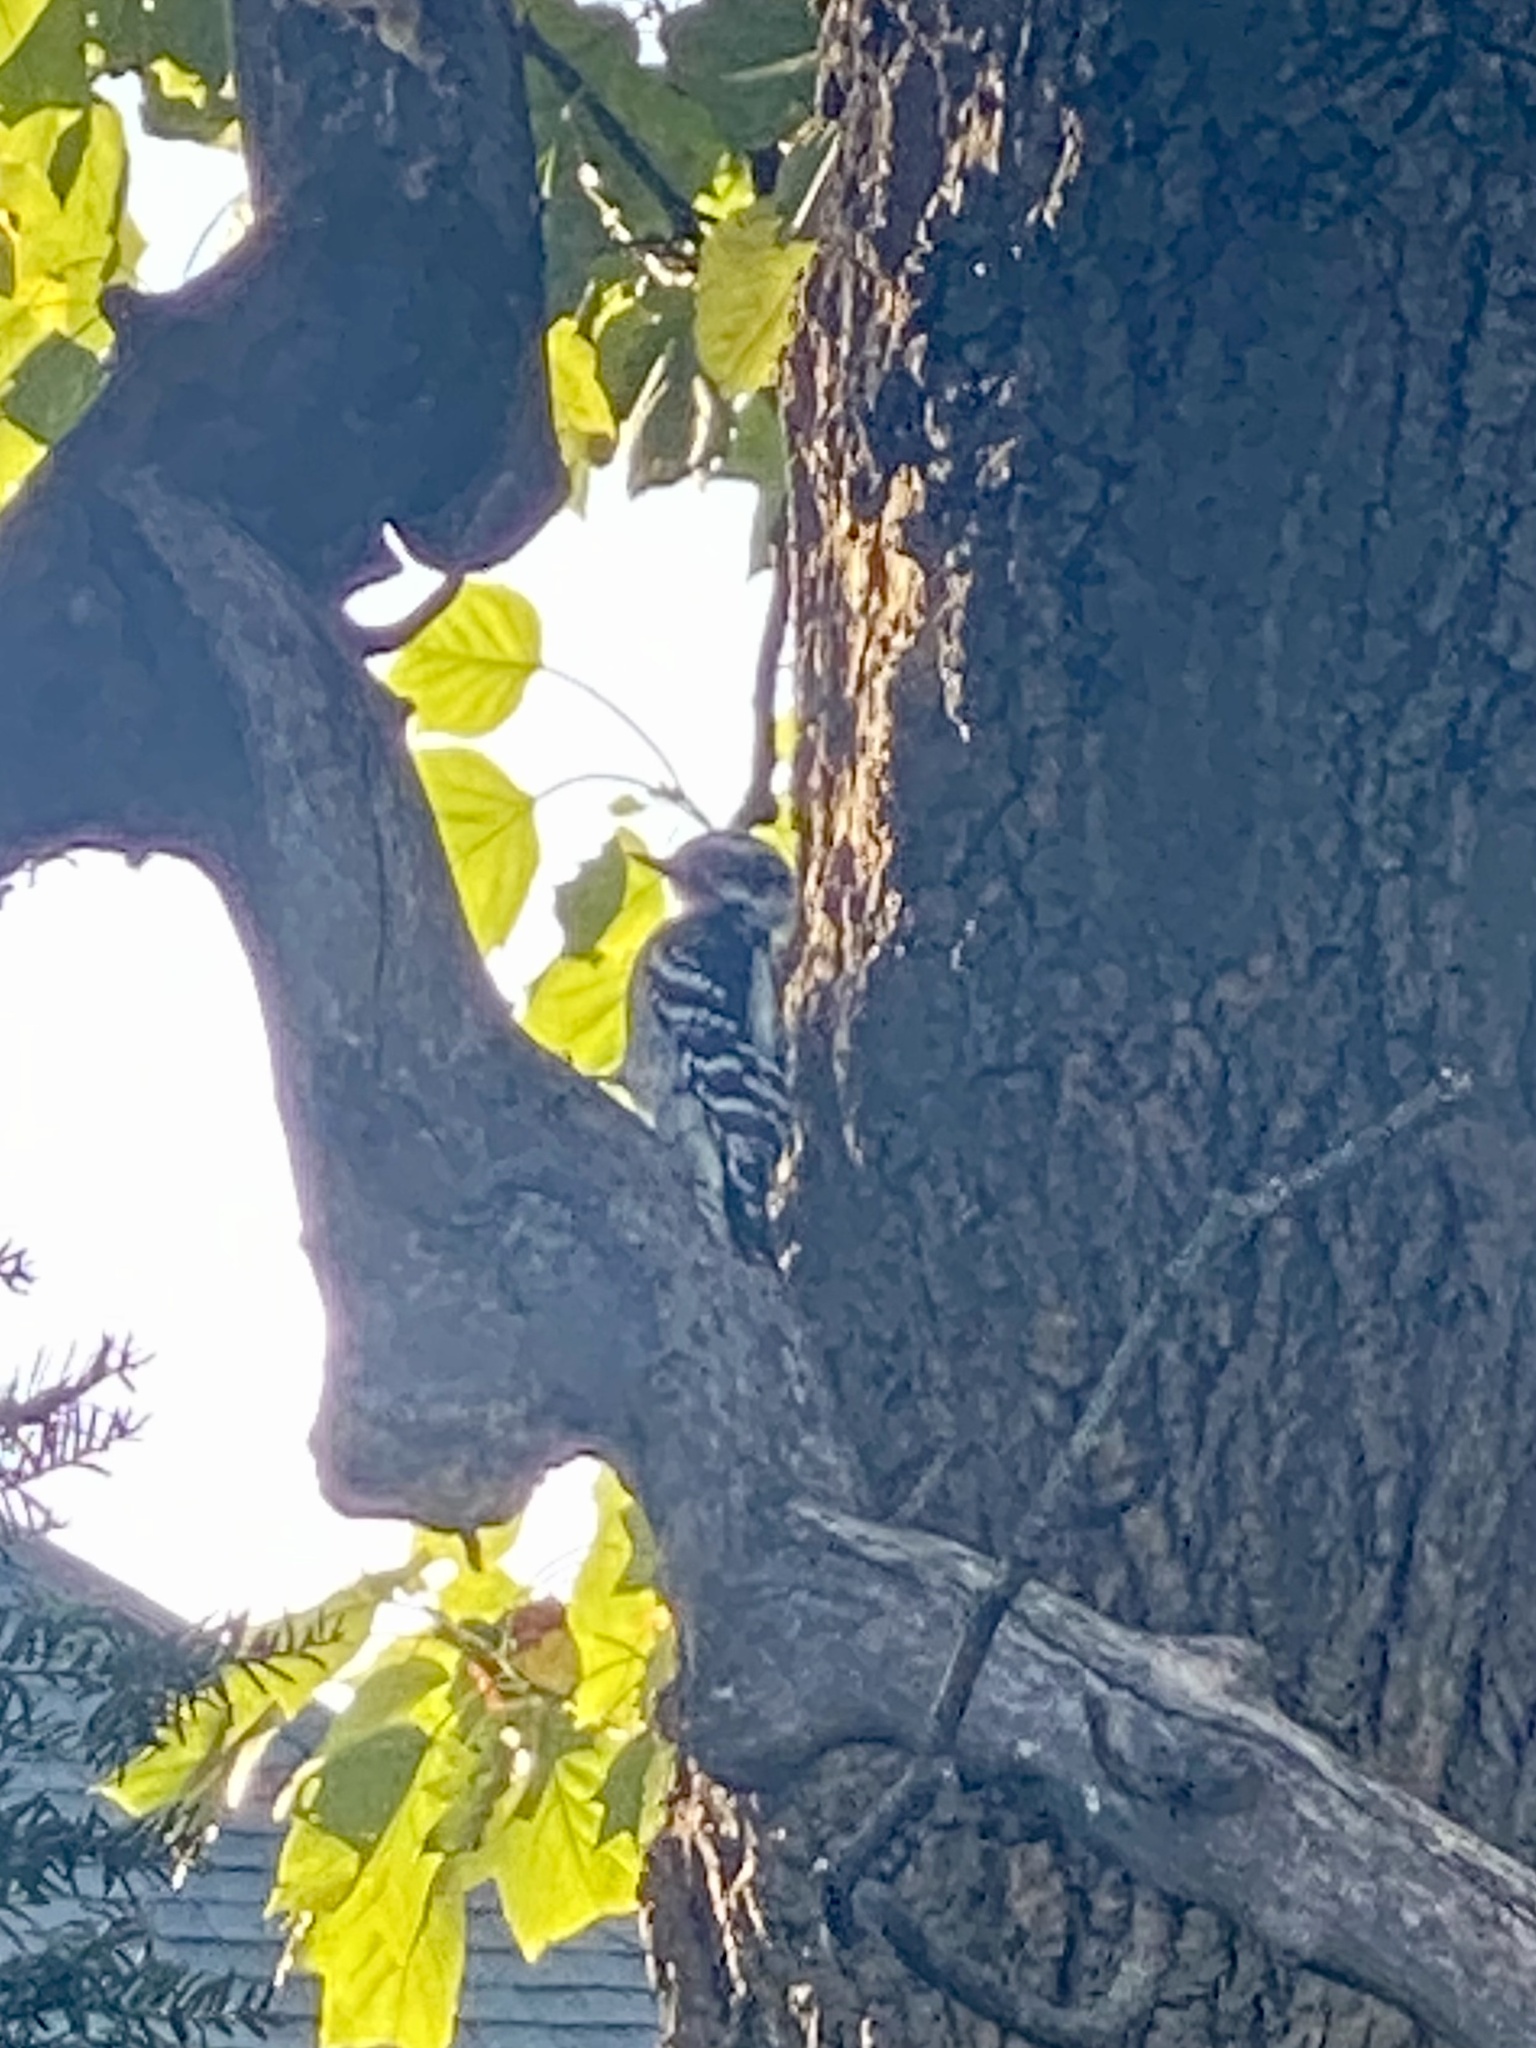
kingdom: Animalia
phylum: Chordata
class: Aves
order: Piciformes
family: Picidae
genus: Dryobates
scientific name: Dryobates pubescens
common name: Downy woodpecker
